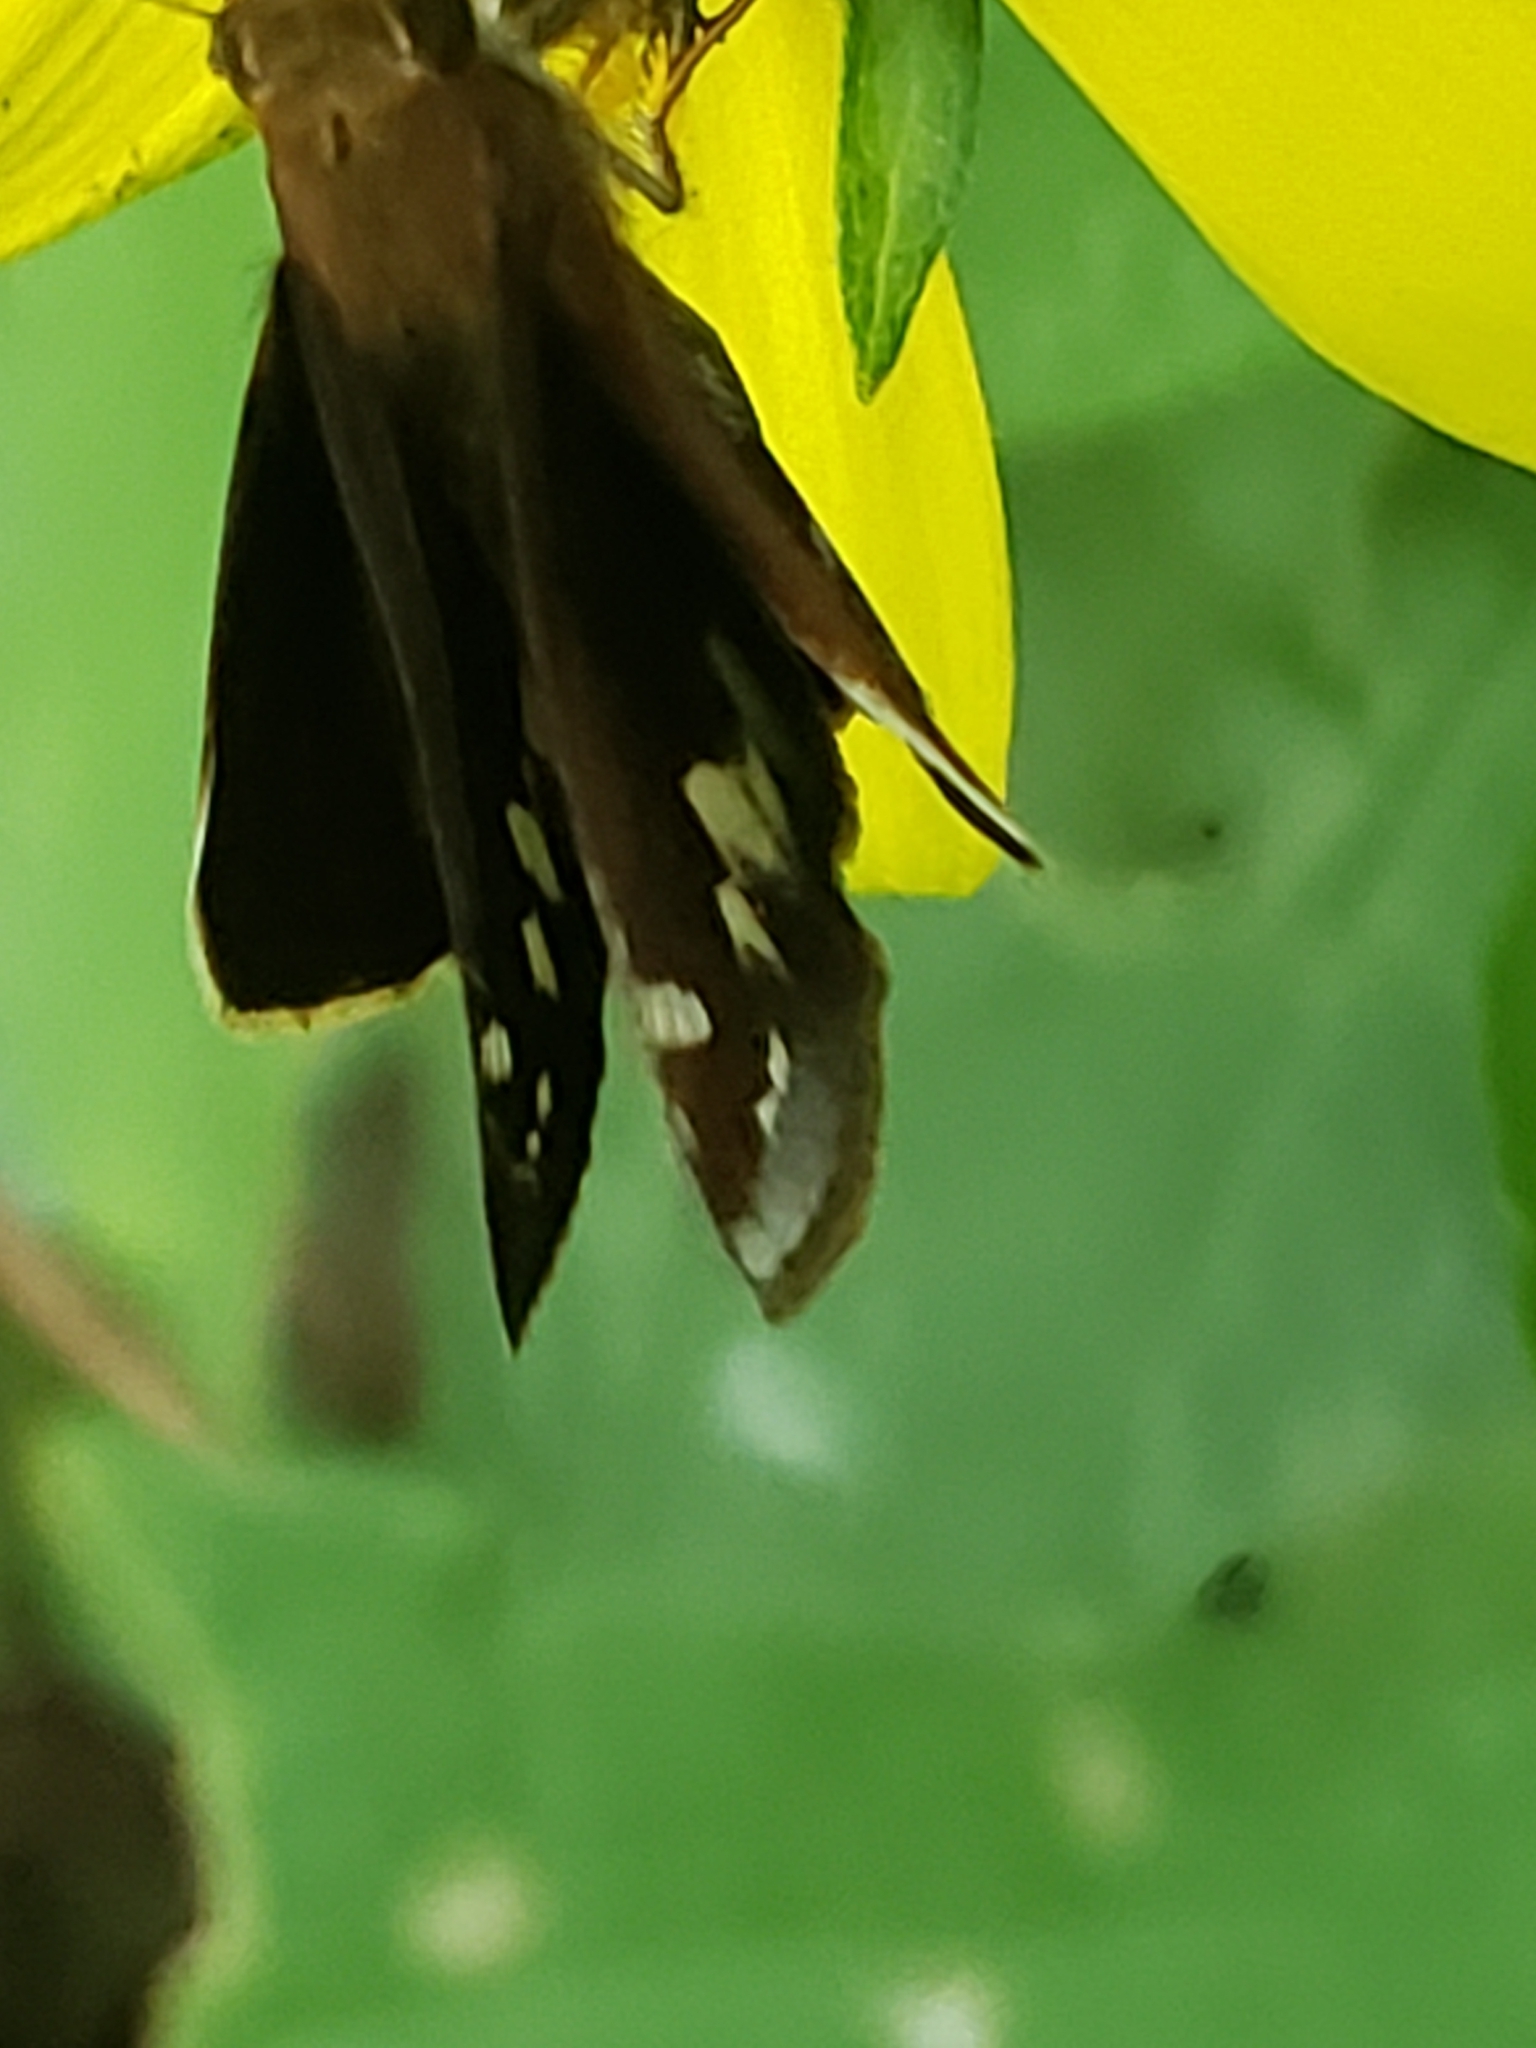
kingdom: Animalia
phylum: Arthropoda
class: Insecta
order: Lepidoptera
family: Hesperiidae
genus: Lon
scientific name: Lon zabulon
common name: Zabulon skipper
